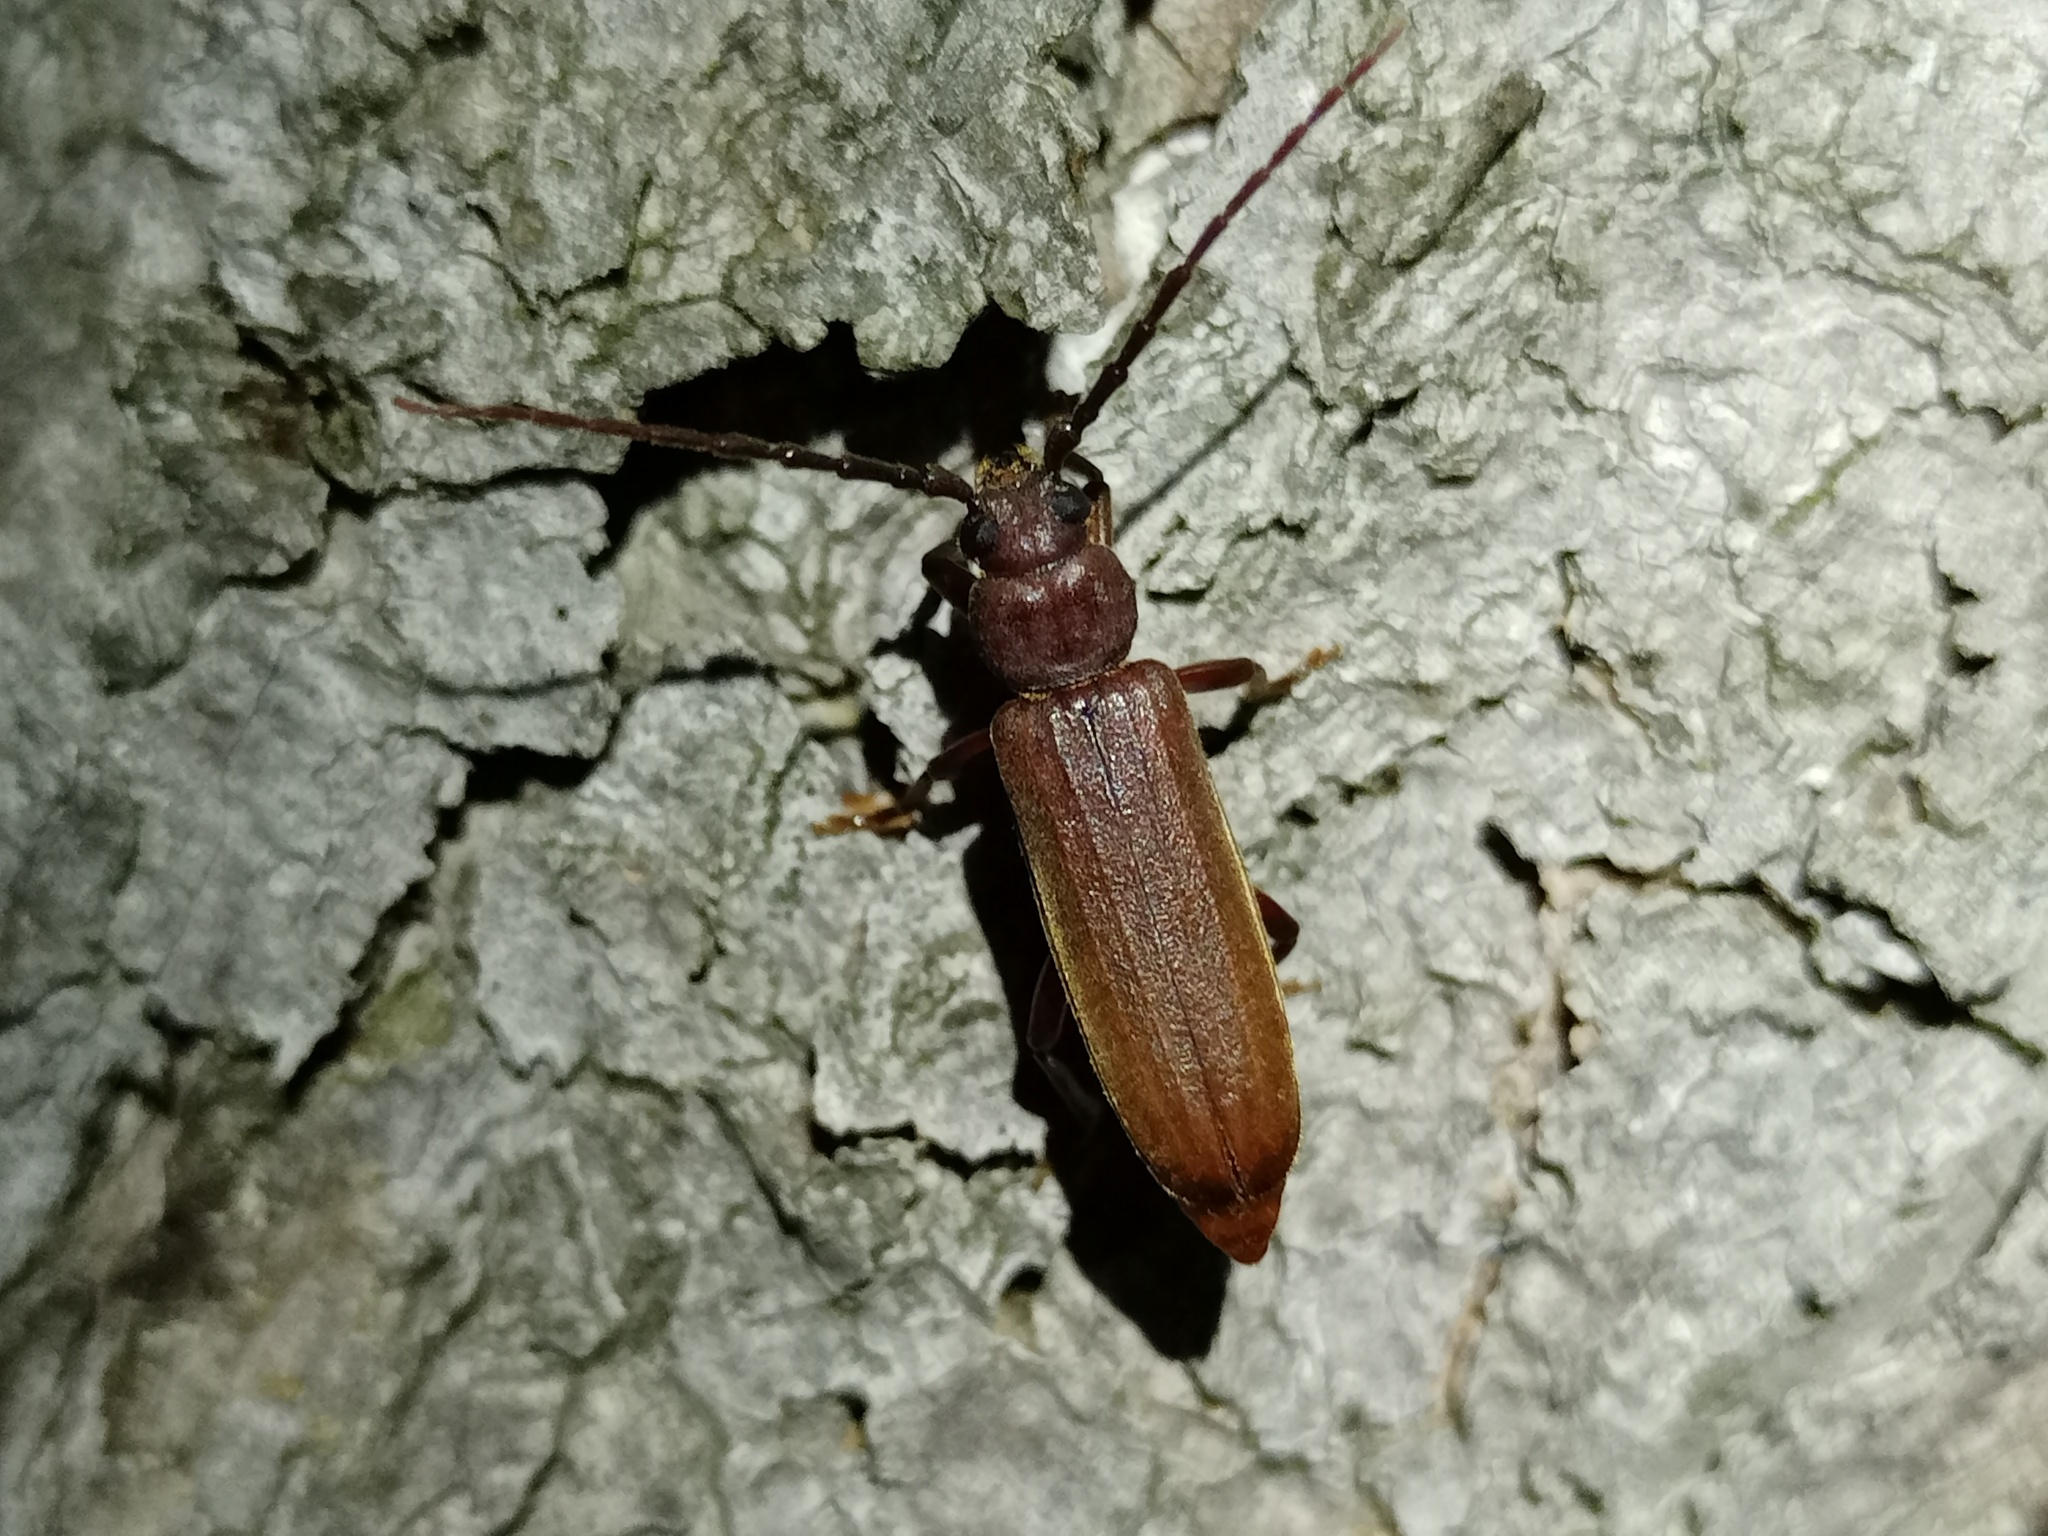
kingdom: Animalia
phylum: Arthropoda
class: Insecta
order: Coleoptera
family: Cerambycidae
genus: Arhopalus
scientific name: Arhopalus rusticus
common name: Rust pine borer
